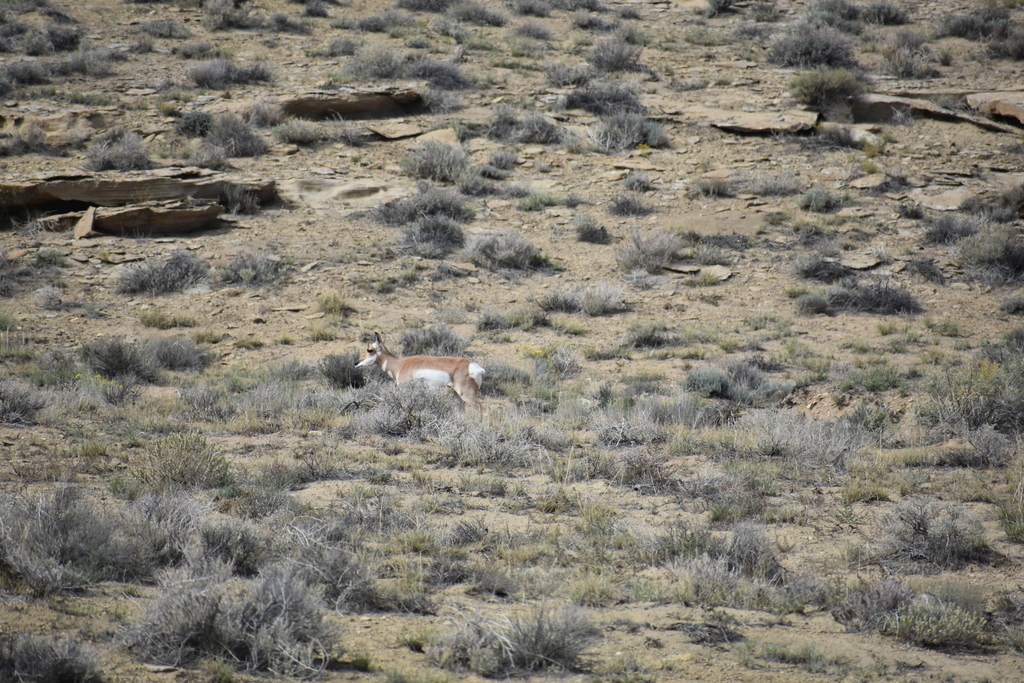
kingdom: Animalia
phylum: Chordata
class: Mammalia
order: Artiodactyla
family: Antilocapridae
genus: Antilocapra
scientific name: Antilocapra americana
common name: Pronghorn
